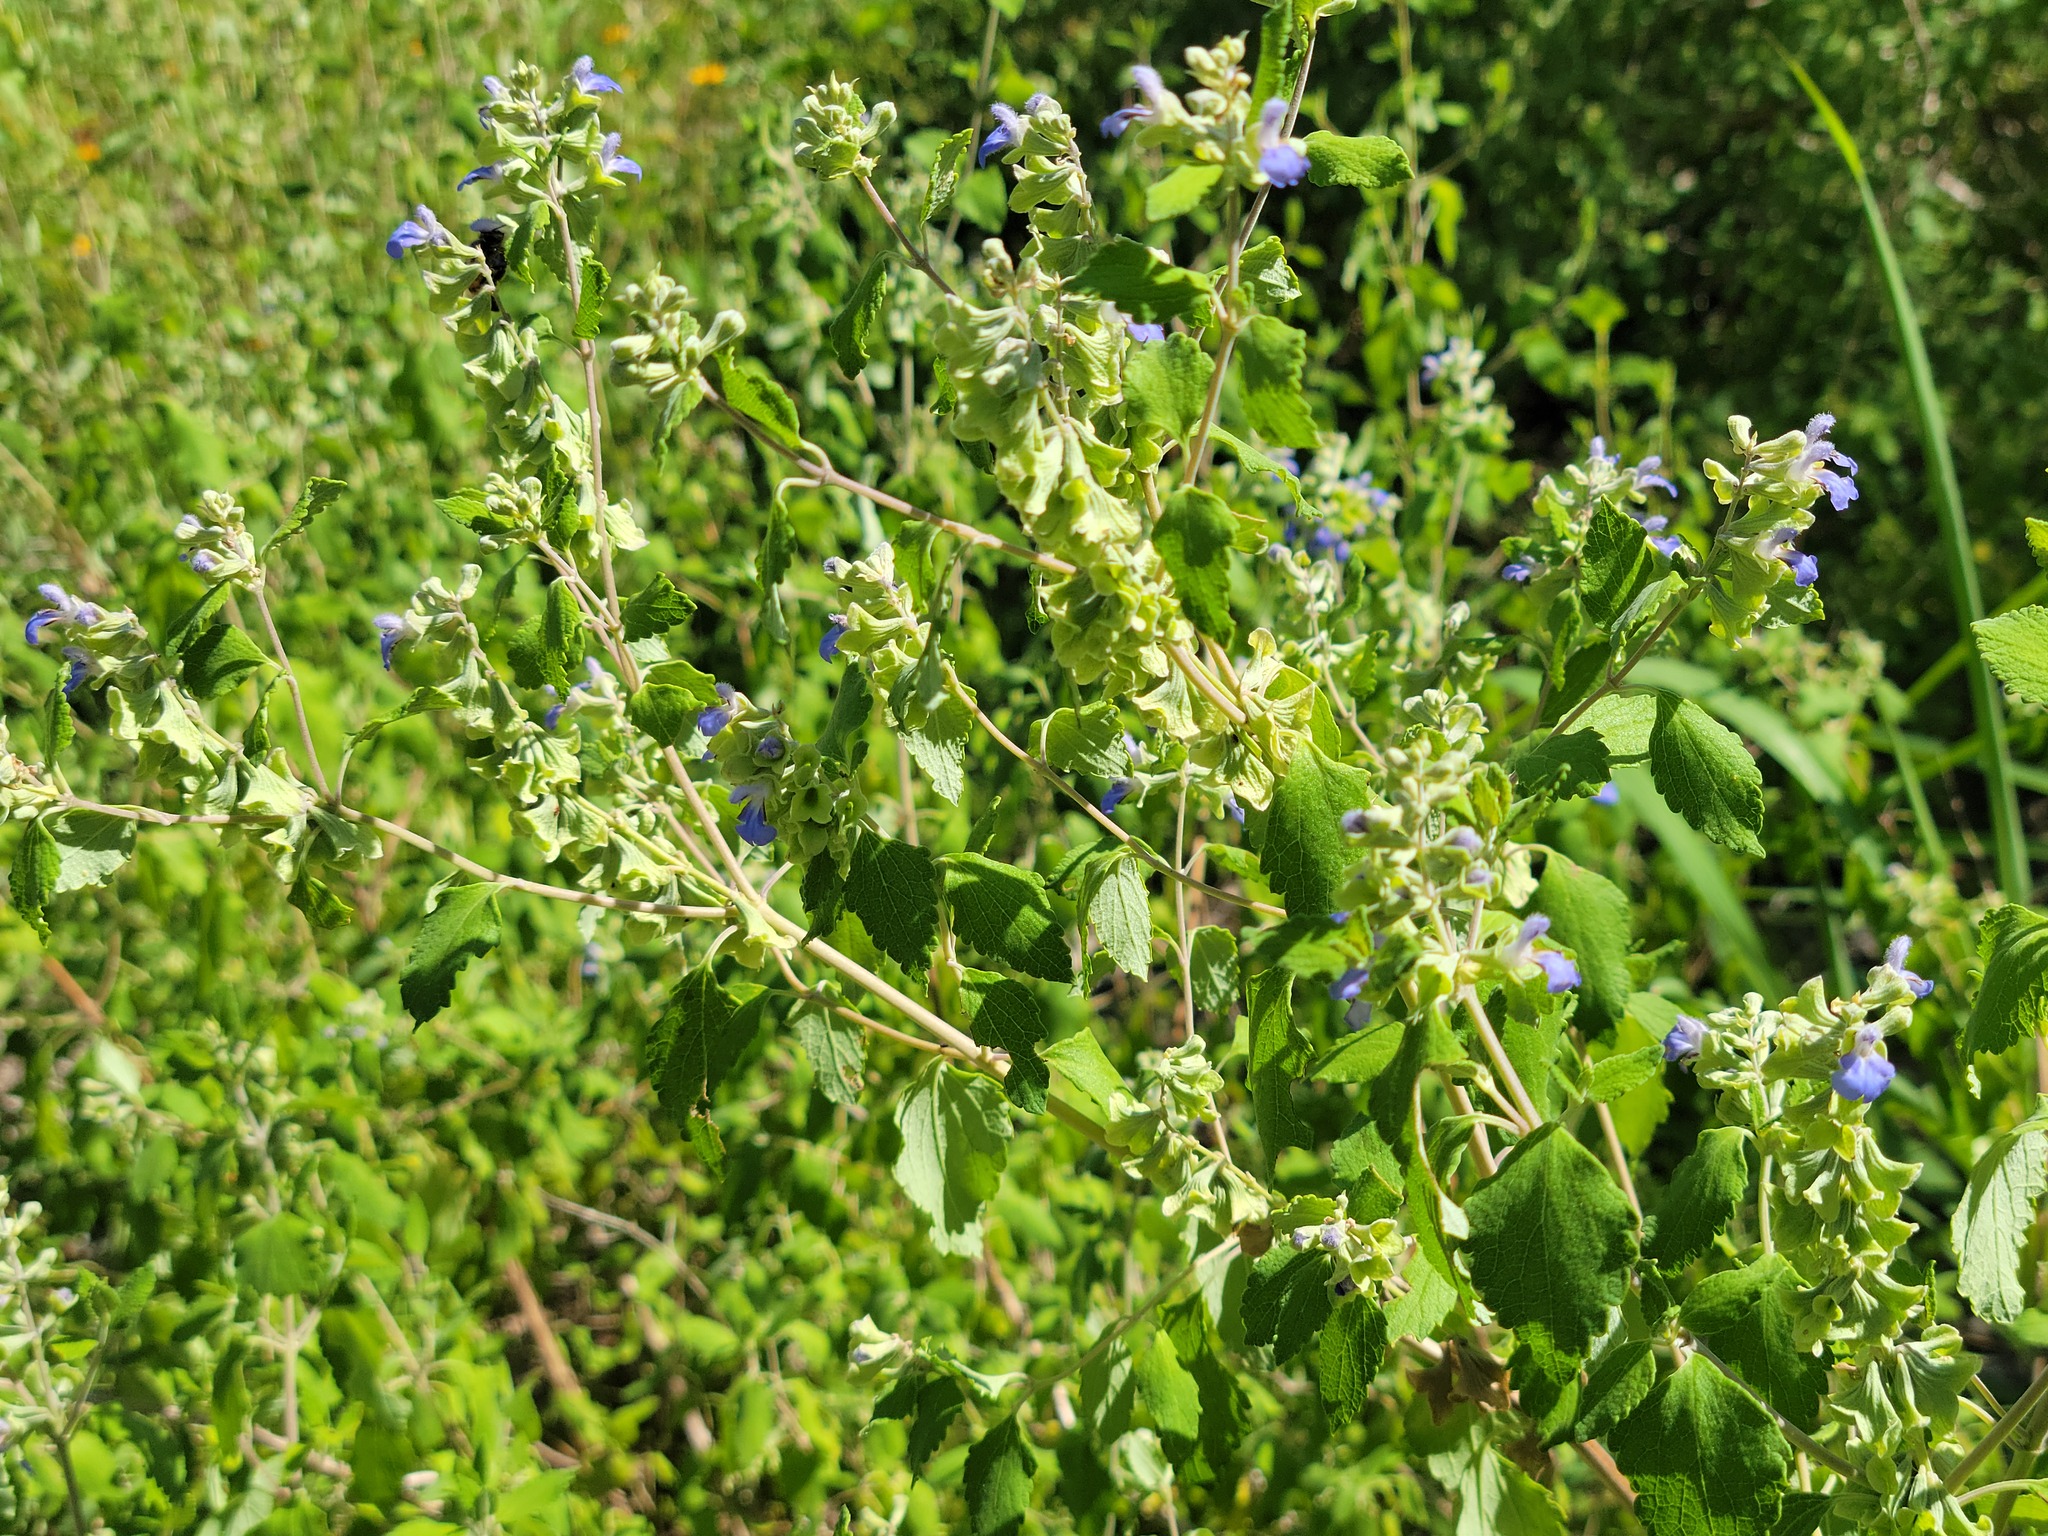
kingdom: Plantae
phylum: Tracheophyta
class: Magnoliopsida
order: Lamiales
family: Lamiaceae
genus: Salvia
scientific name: Salvia ballotiflora
